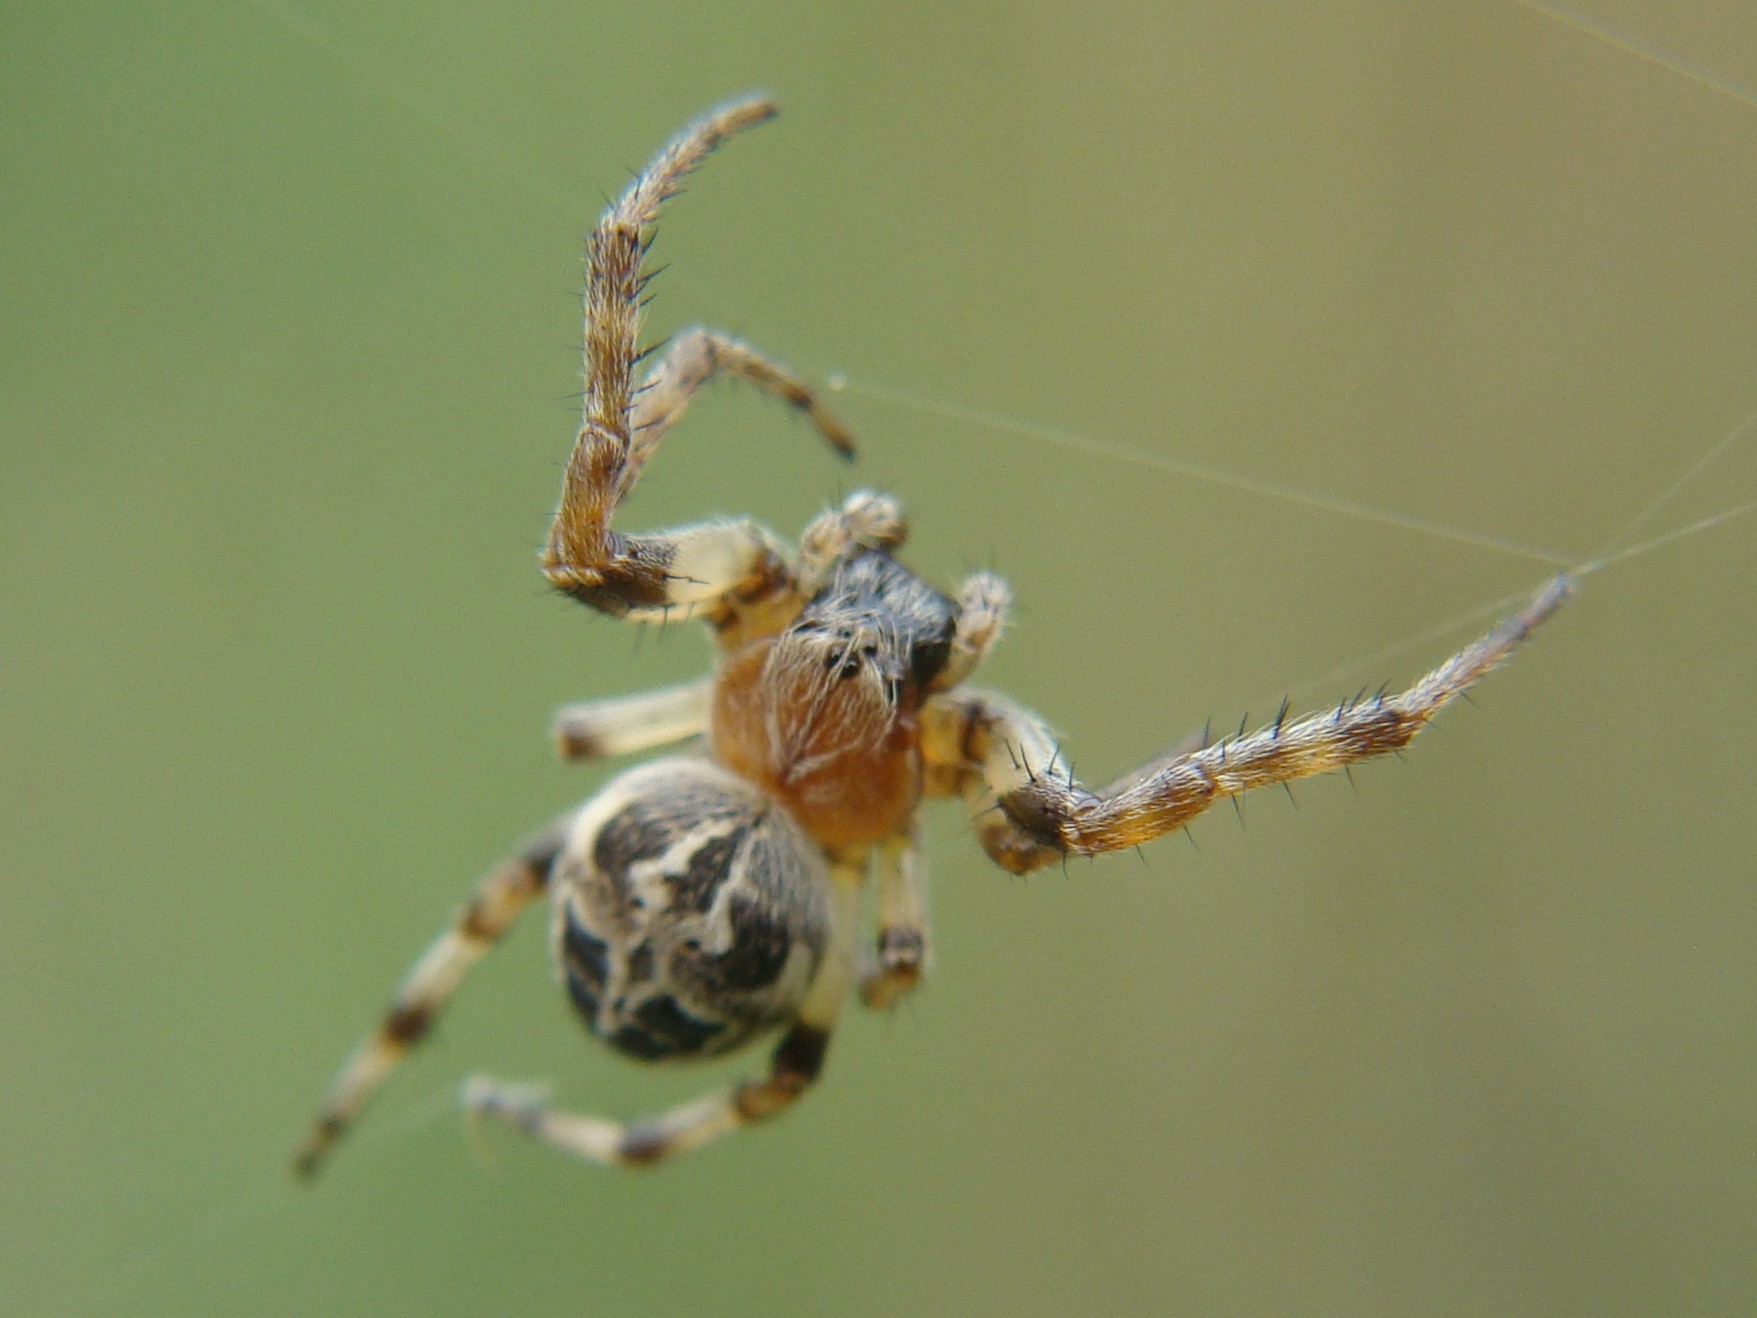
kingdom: Animalia
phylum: Arthropoda
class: Arachnida
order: Araneae
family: Araneidae
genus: Larinioides
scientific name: Larinioides sclopetarius
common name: Bridge orbweaver
